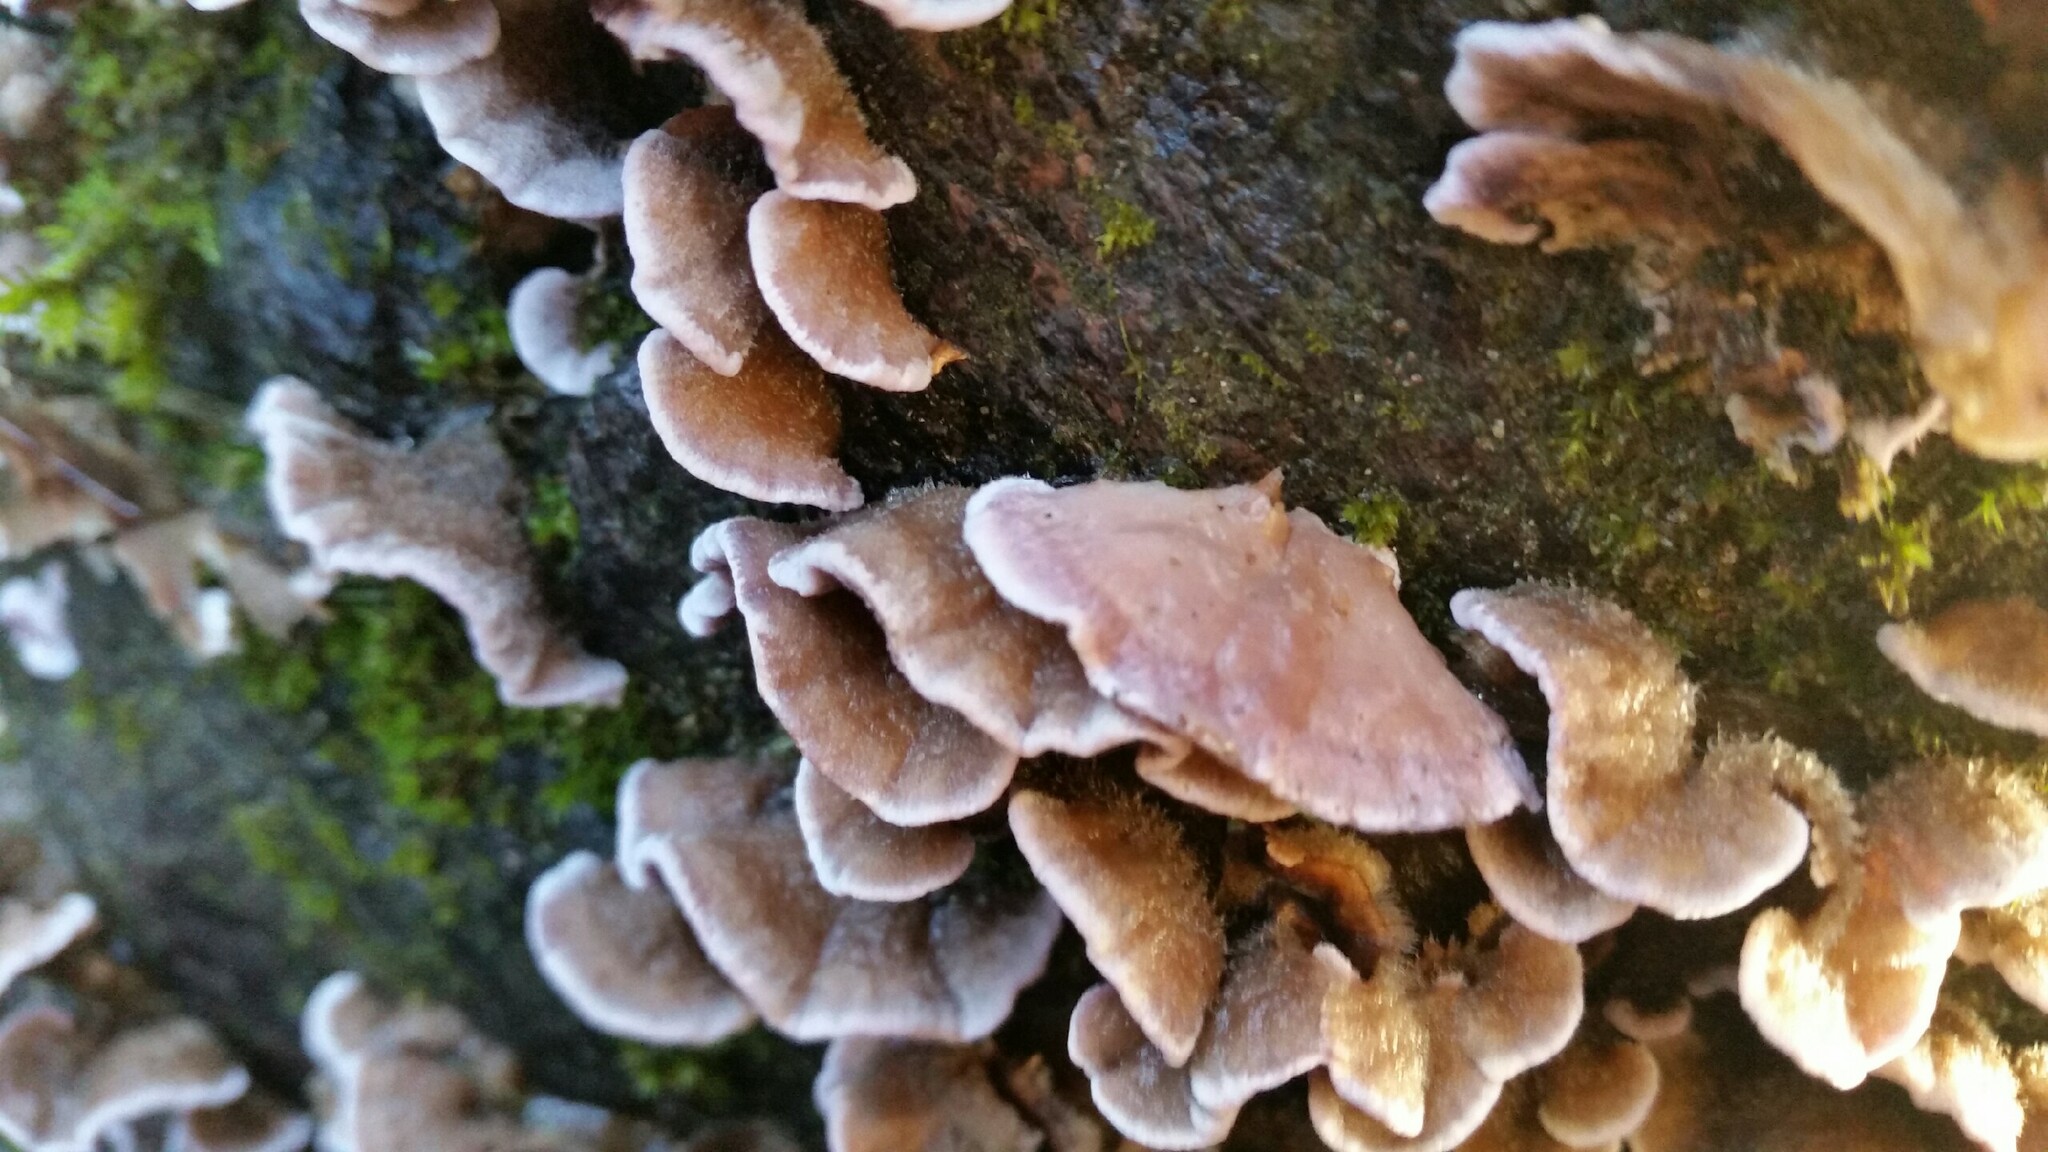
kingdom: Fungi
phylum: Basidiomycota
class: Agaricomycetes
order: Hymenochaetales
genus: Trichaptum
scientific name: Trichaptum abietinum
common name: Purplepore bracket
